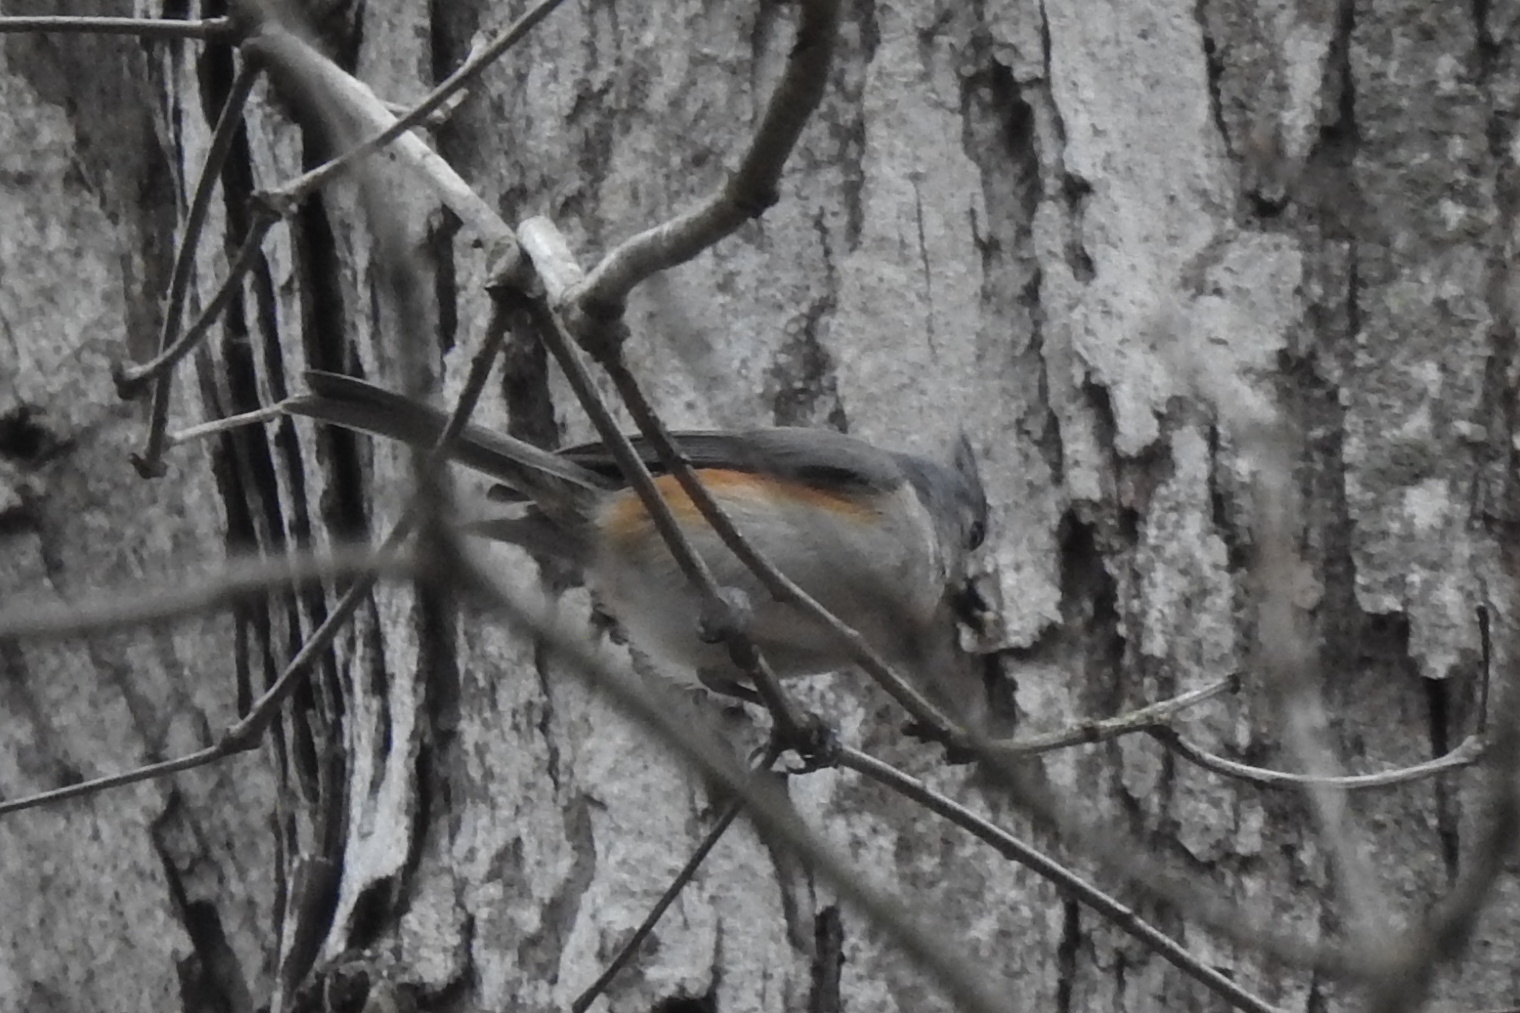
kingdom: Animalia
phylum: Chordata
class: Aves
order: Passeriformes
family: Paridae
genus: Baeolophus
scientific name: Baeolophus bicolor
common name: Tufted titmouse
